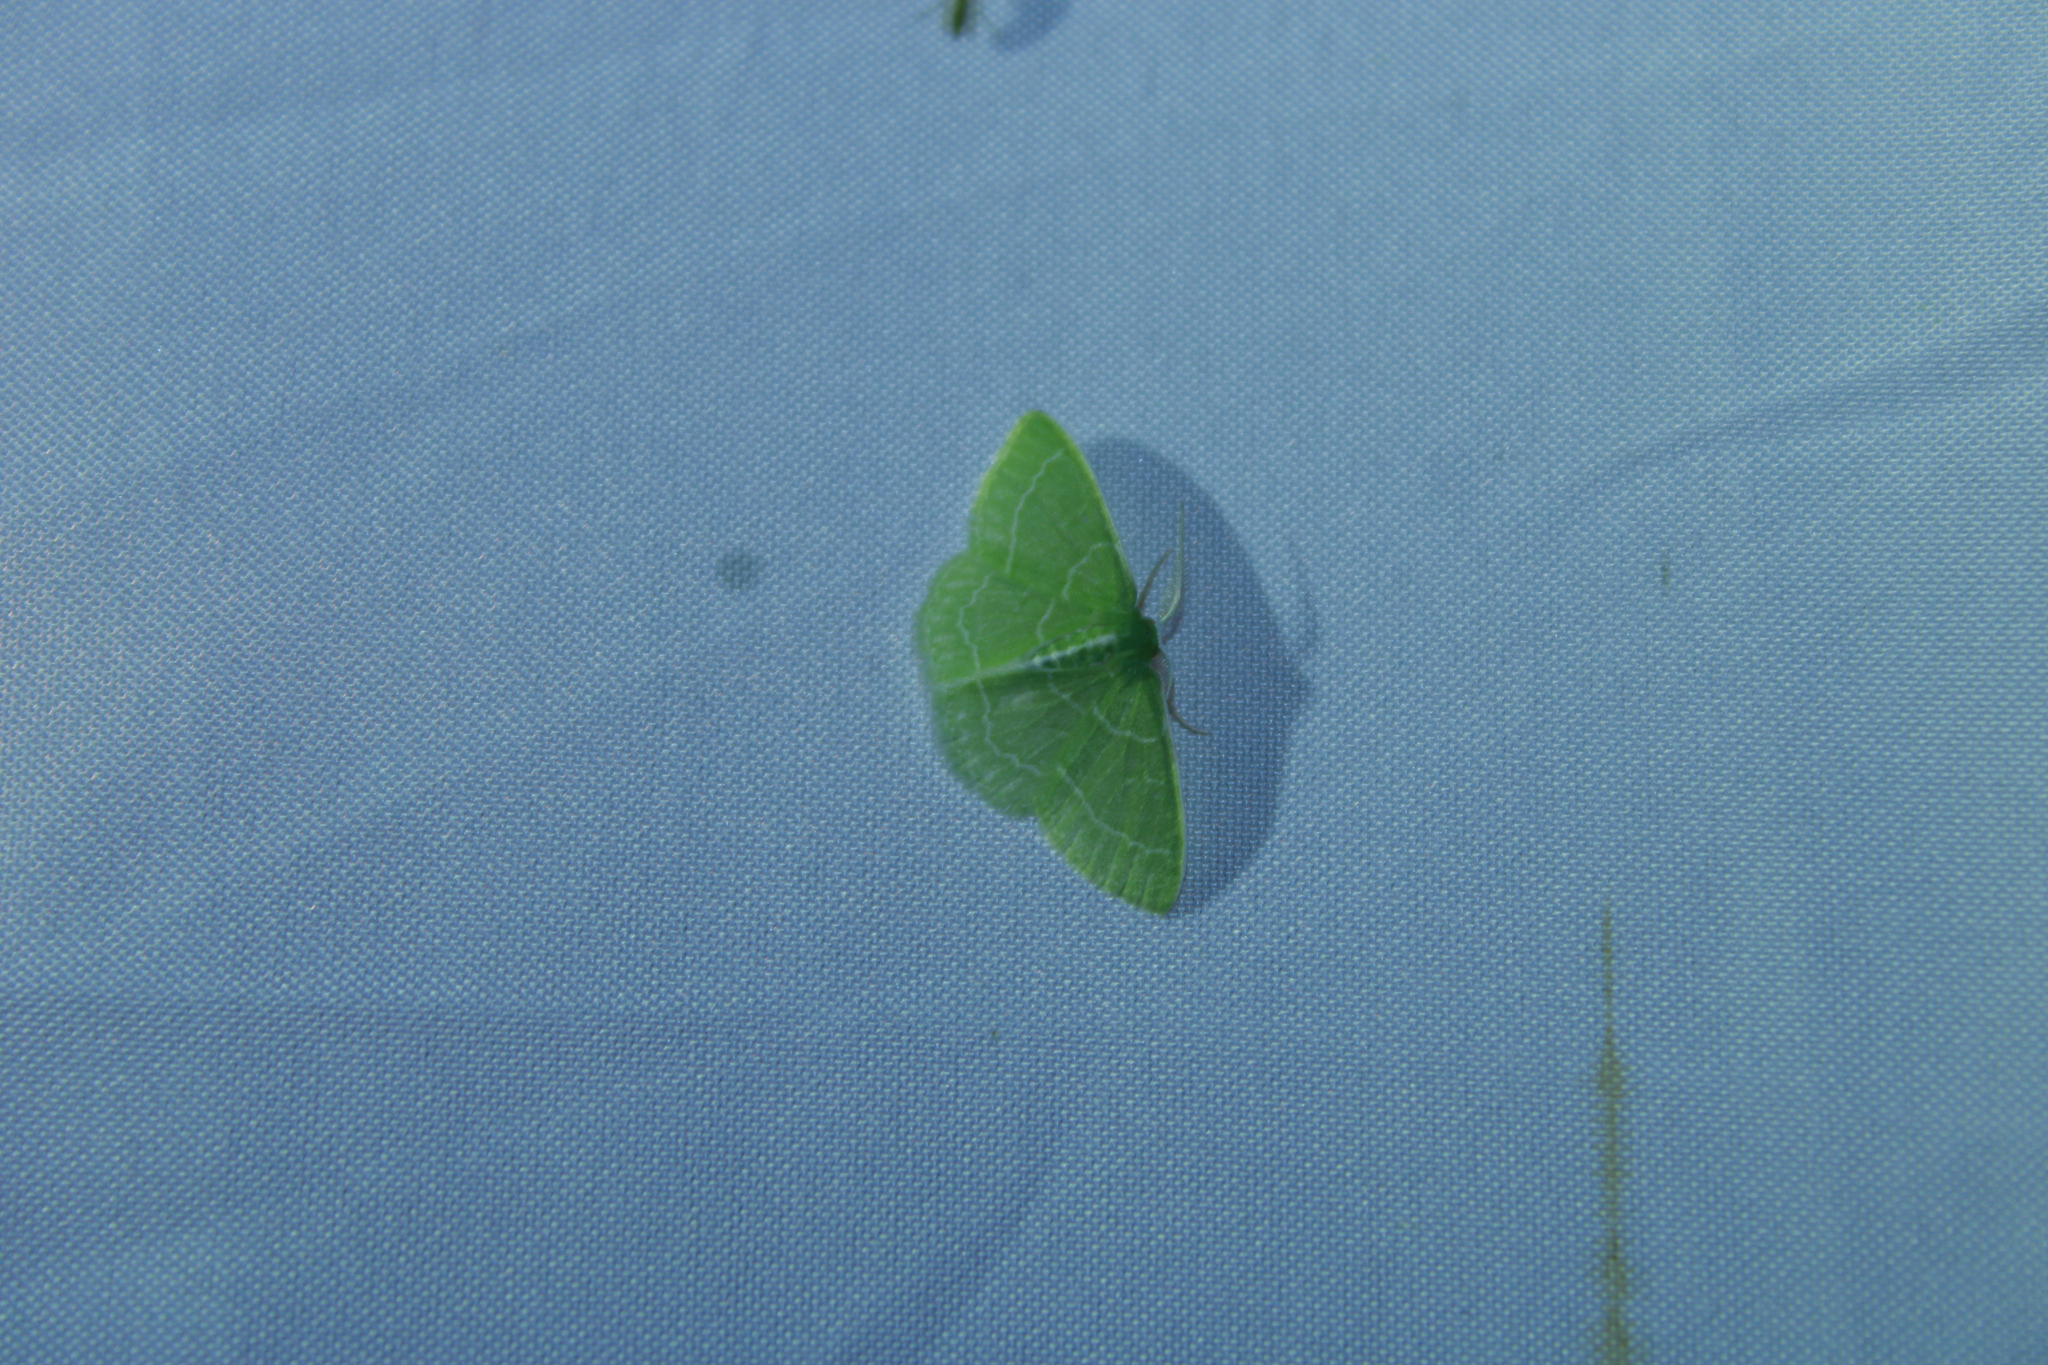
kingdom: Animalia
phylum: Arthropoda
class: Insecta
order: Lepidoptera
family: Geometridae
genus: Synchlora
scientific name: Synchlora aerata
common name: Wavy-lined emerald
